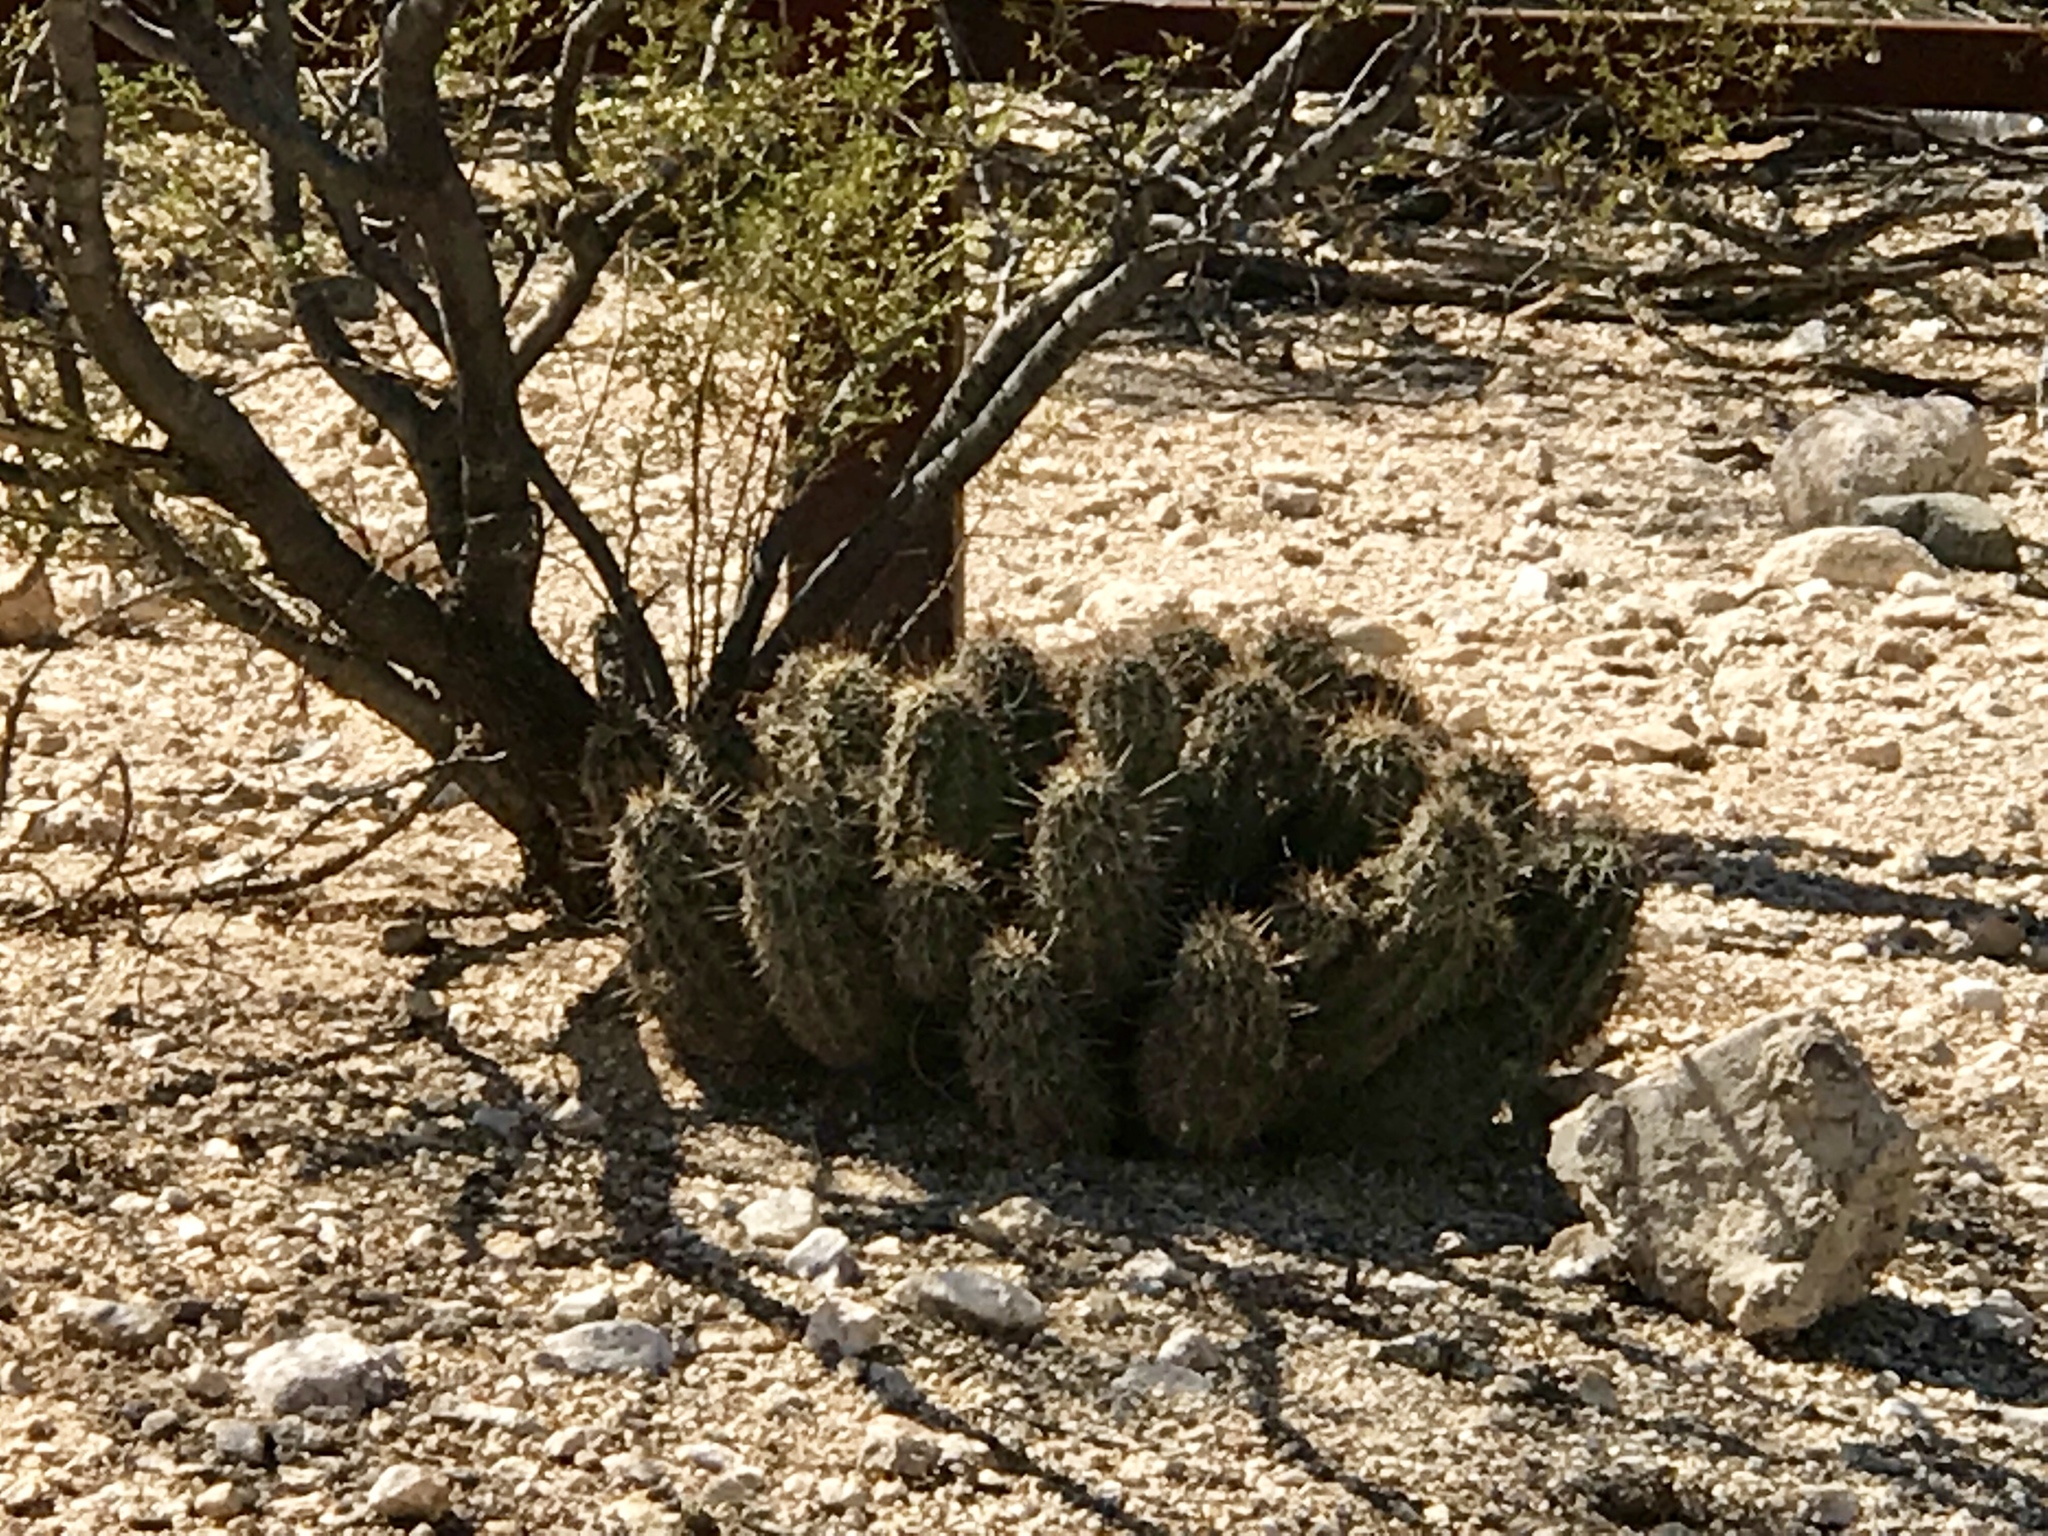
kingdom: Plantae
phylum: Tracheophyta
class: Magnoliopsida
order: Caryophyllales
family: Cactaceae
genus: Echinocereus
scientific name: Echinocereus fasciculatus
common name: Bundle hedgehog
